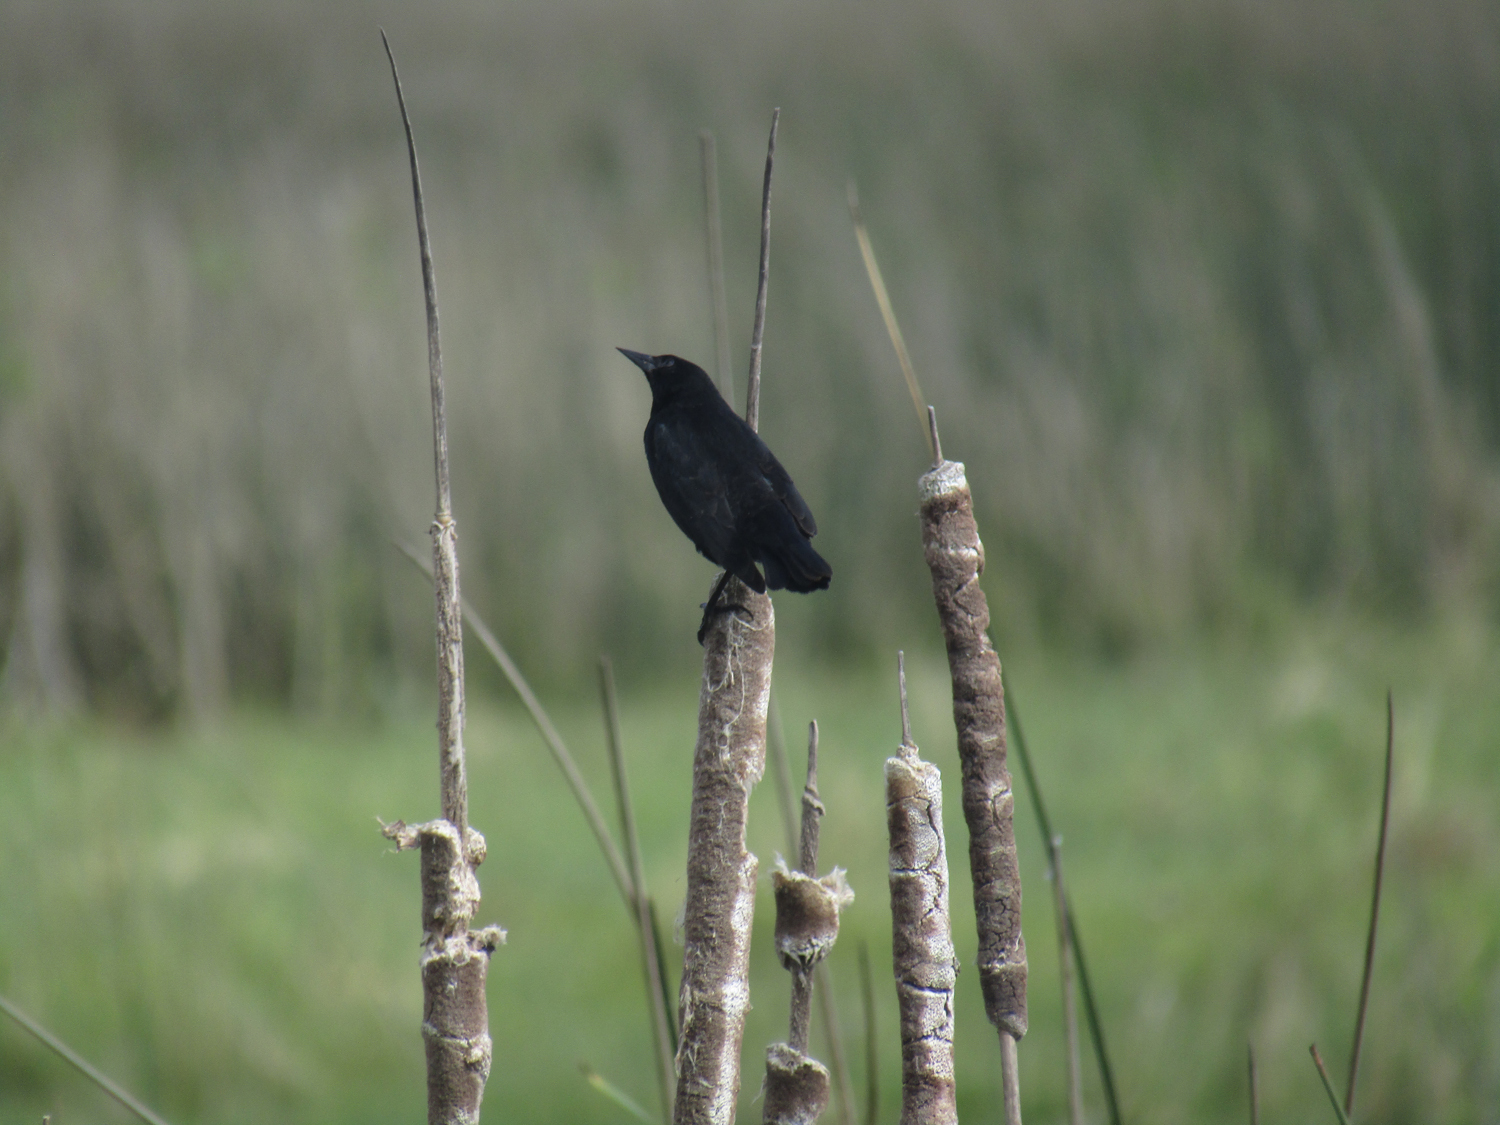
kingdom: Animalia
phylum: Chordata
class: Aves
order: Passeriformes
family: Icteridae
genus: Agelasticus
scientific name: Agelasticus thilius
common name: Yellow-winged blackbird
